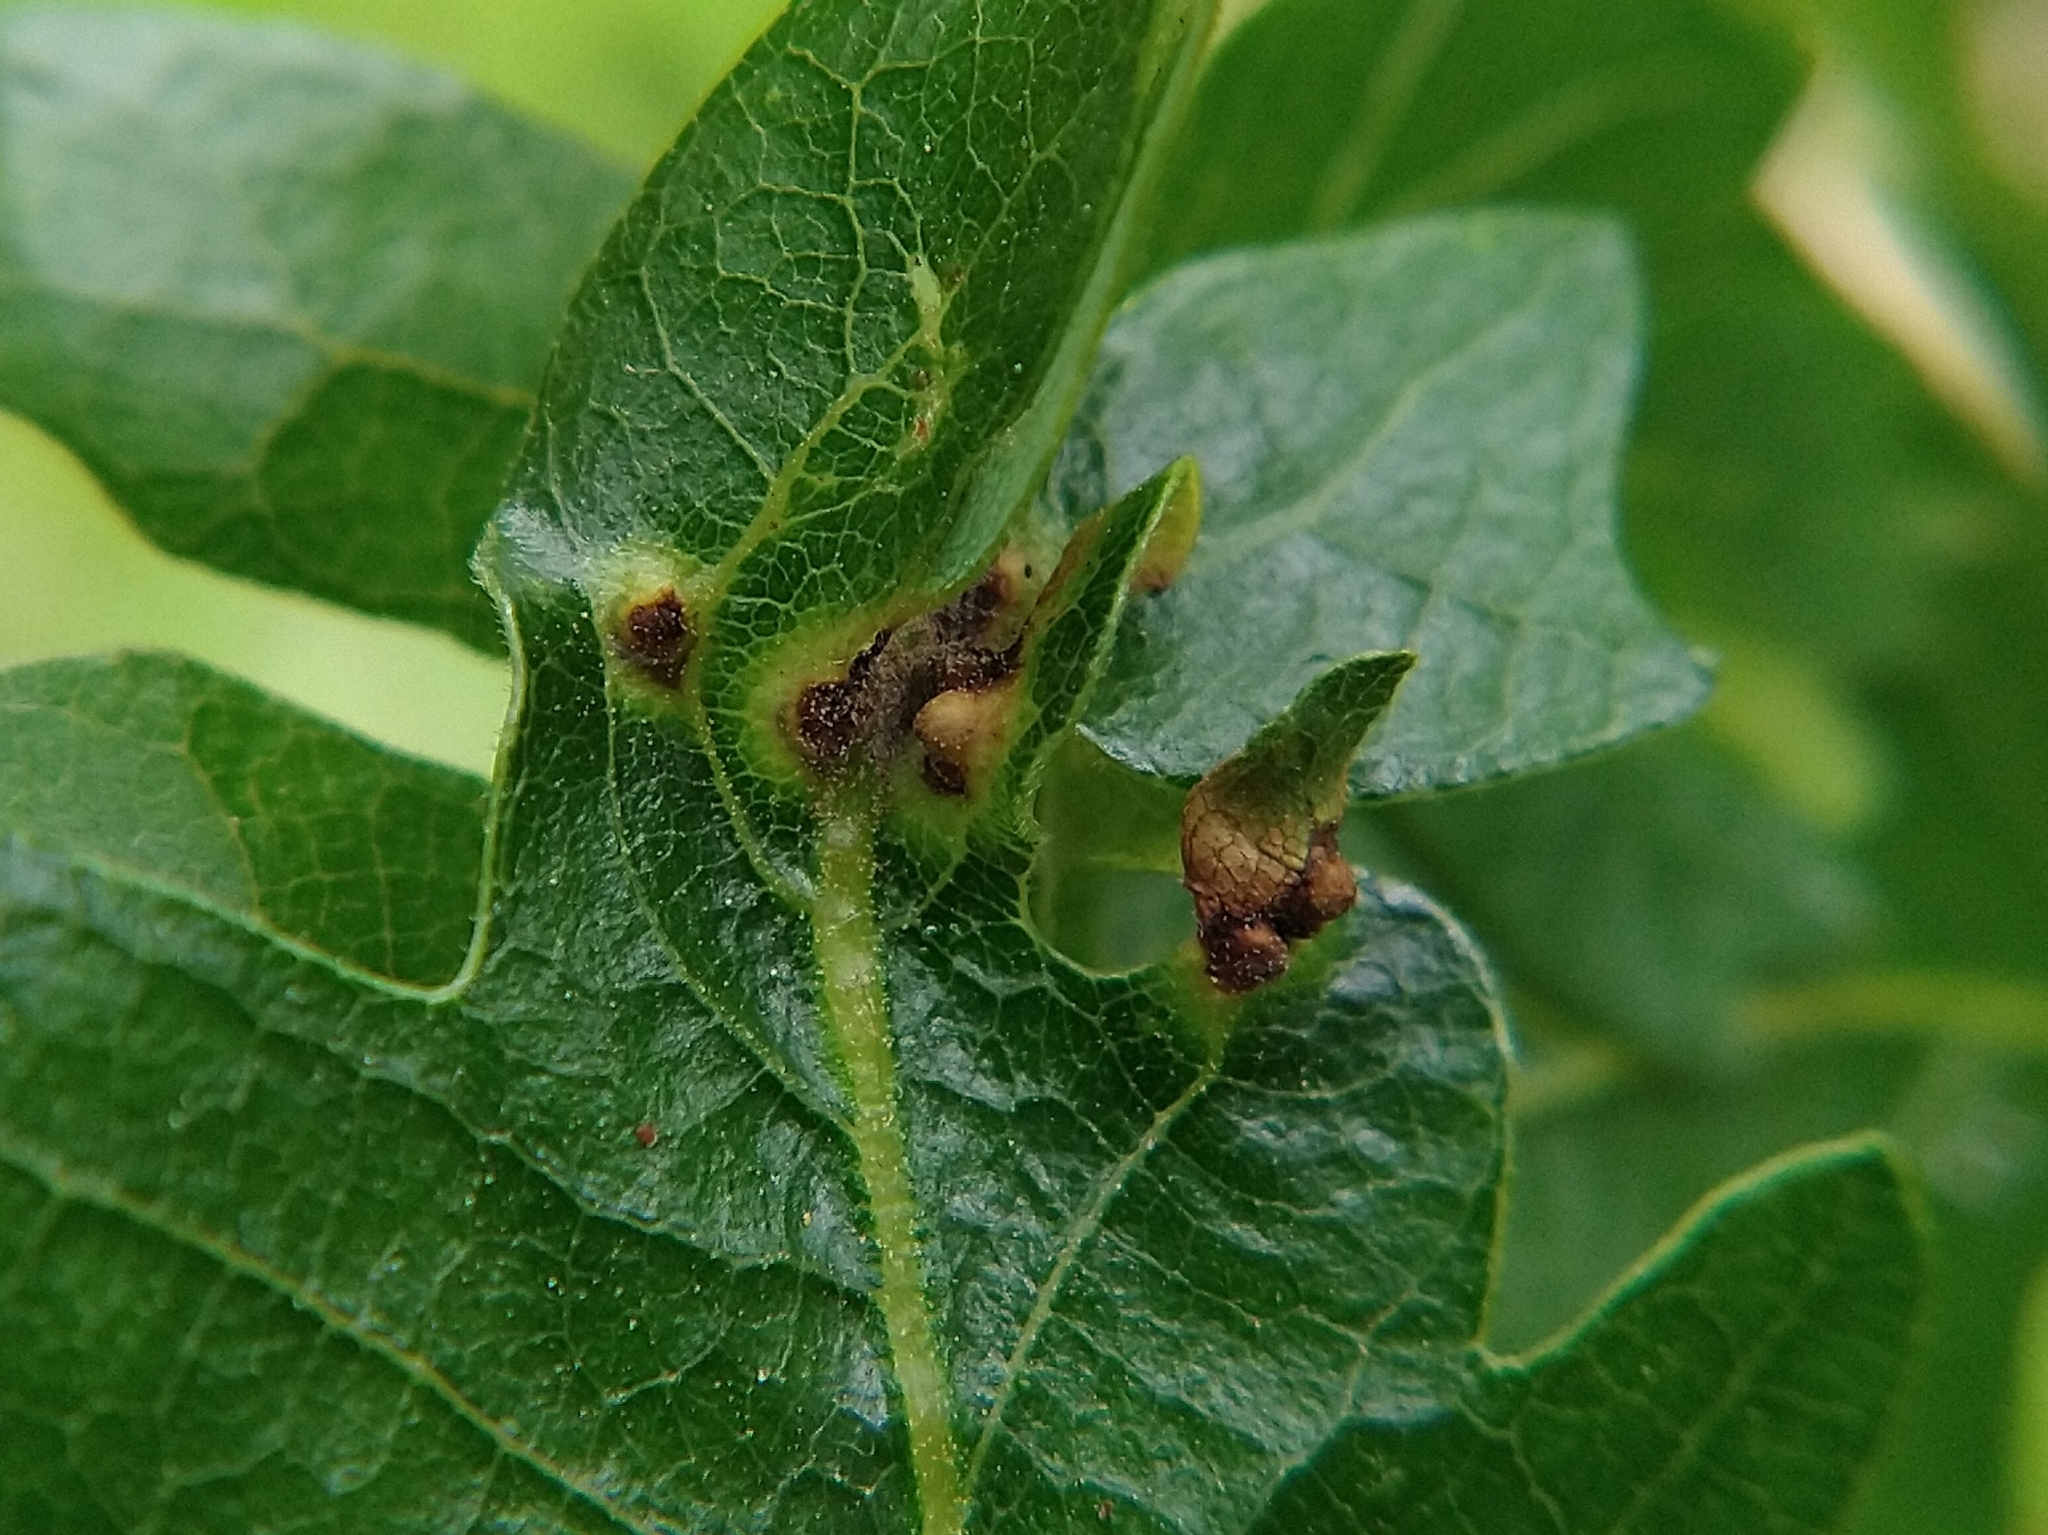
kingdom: Animalia
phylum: Arthropoda
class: Insecta
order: Hymenoptera
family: Cynipidae
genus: Neuroterus
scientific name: Neuroterus saltarius
